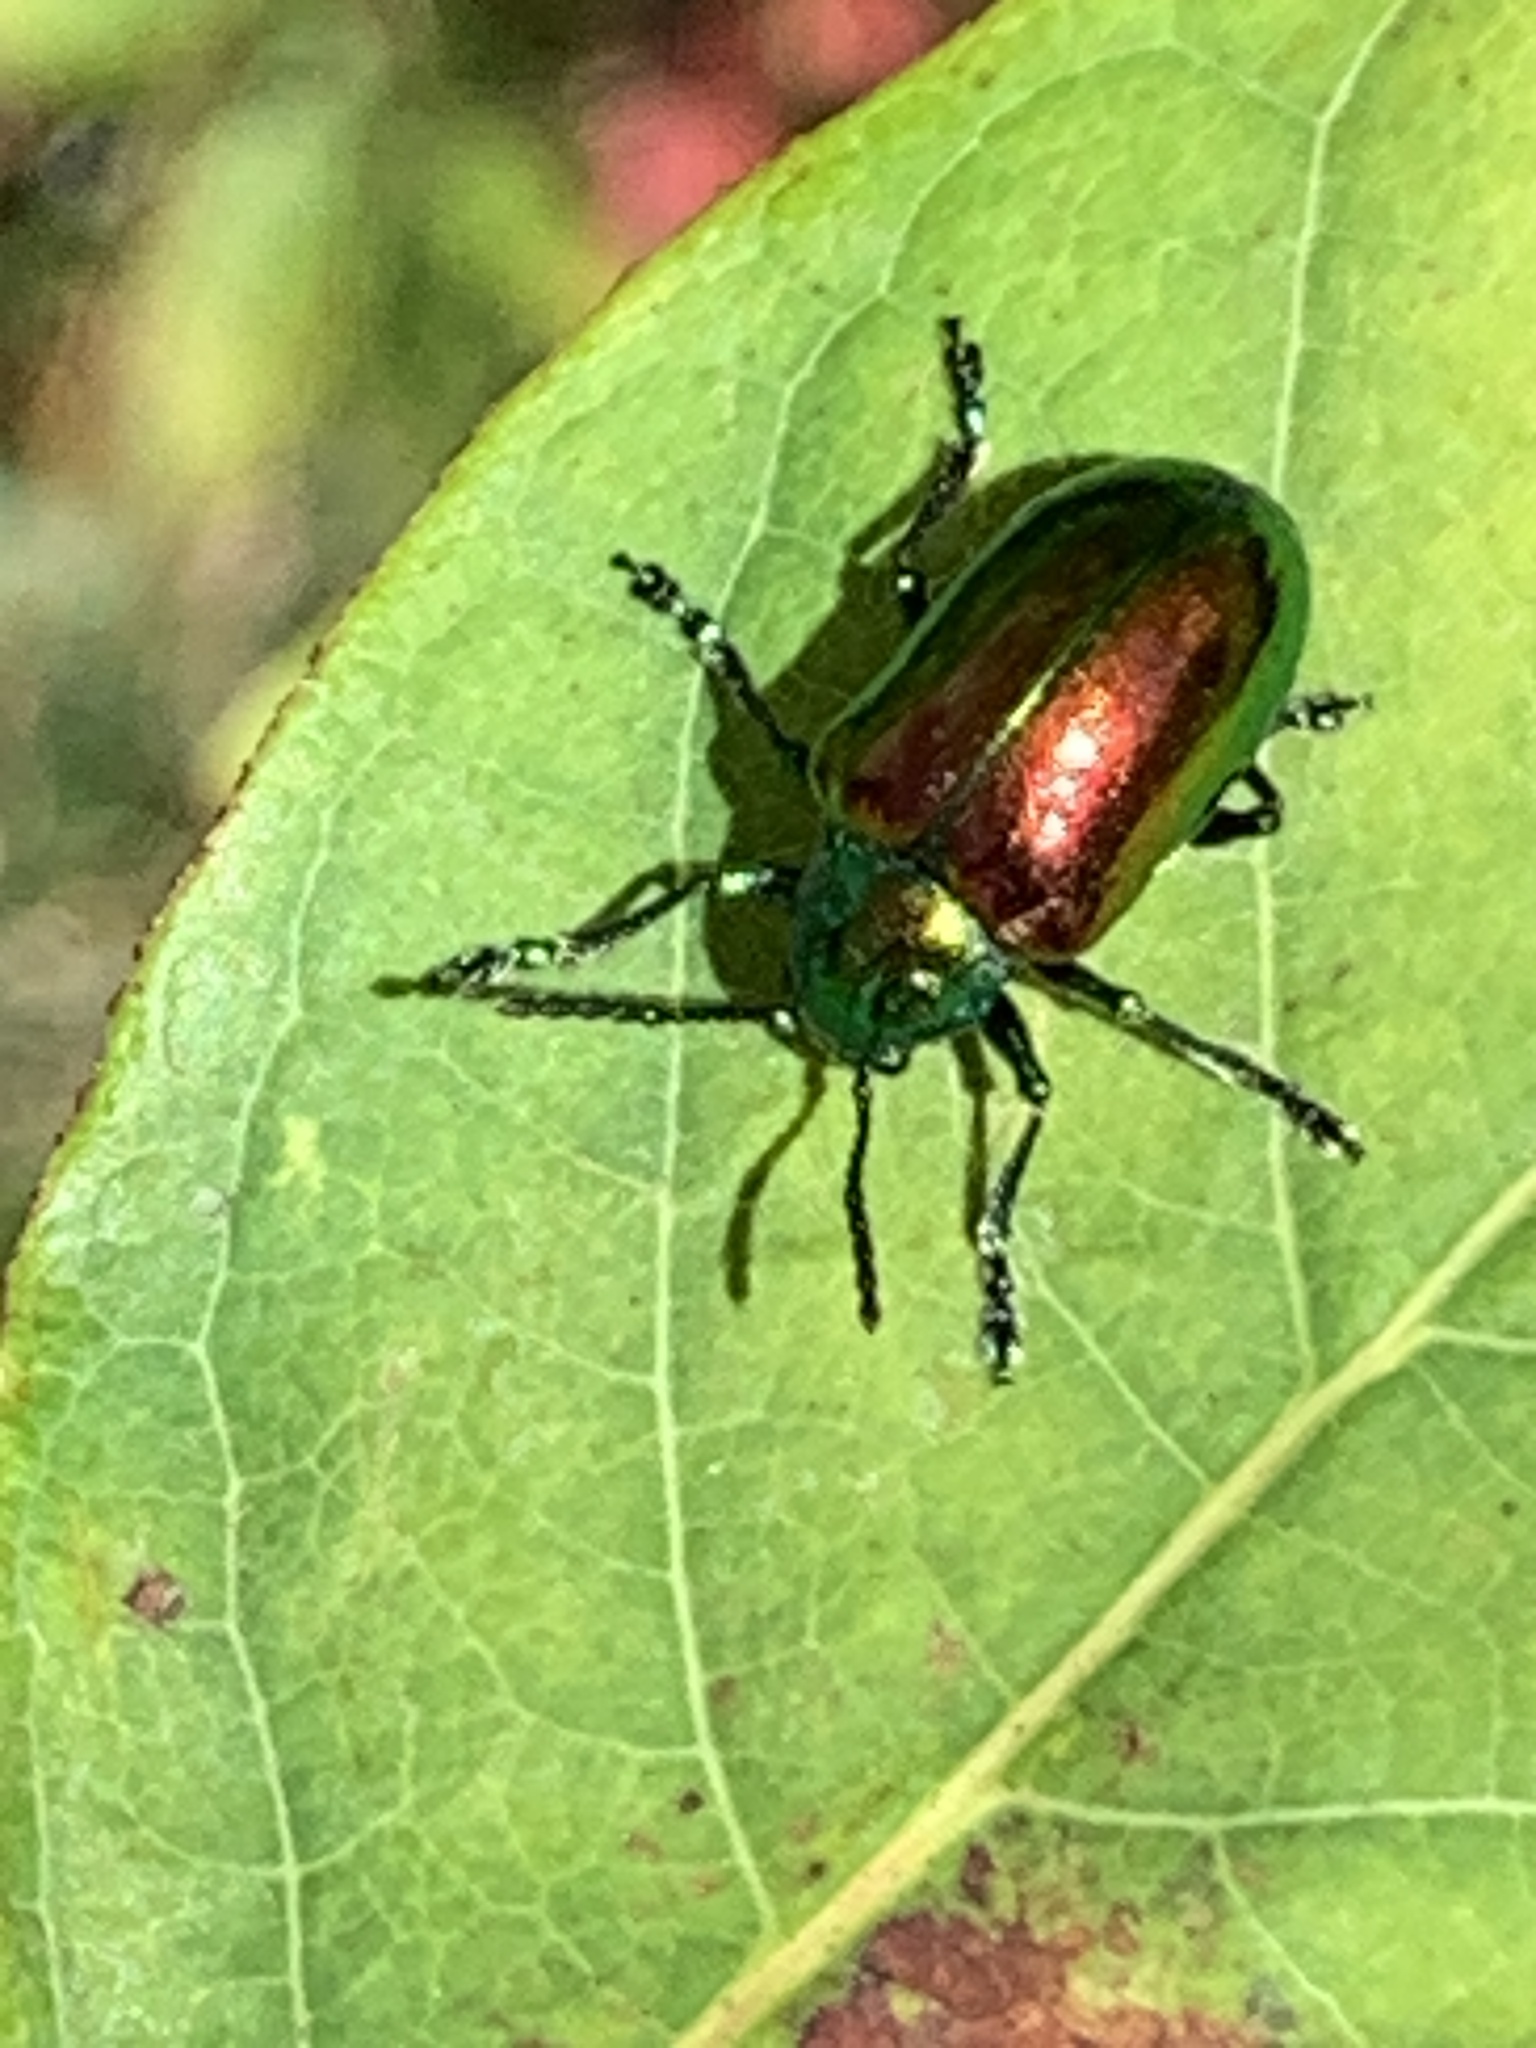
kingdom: Animalia
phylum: Arthropoda
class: Insecta
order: Coleoptera
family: Chrysomelidae
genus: Chrysochus
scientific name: Chrysochus auratus
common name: Dogbane leaf beetle
